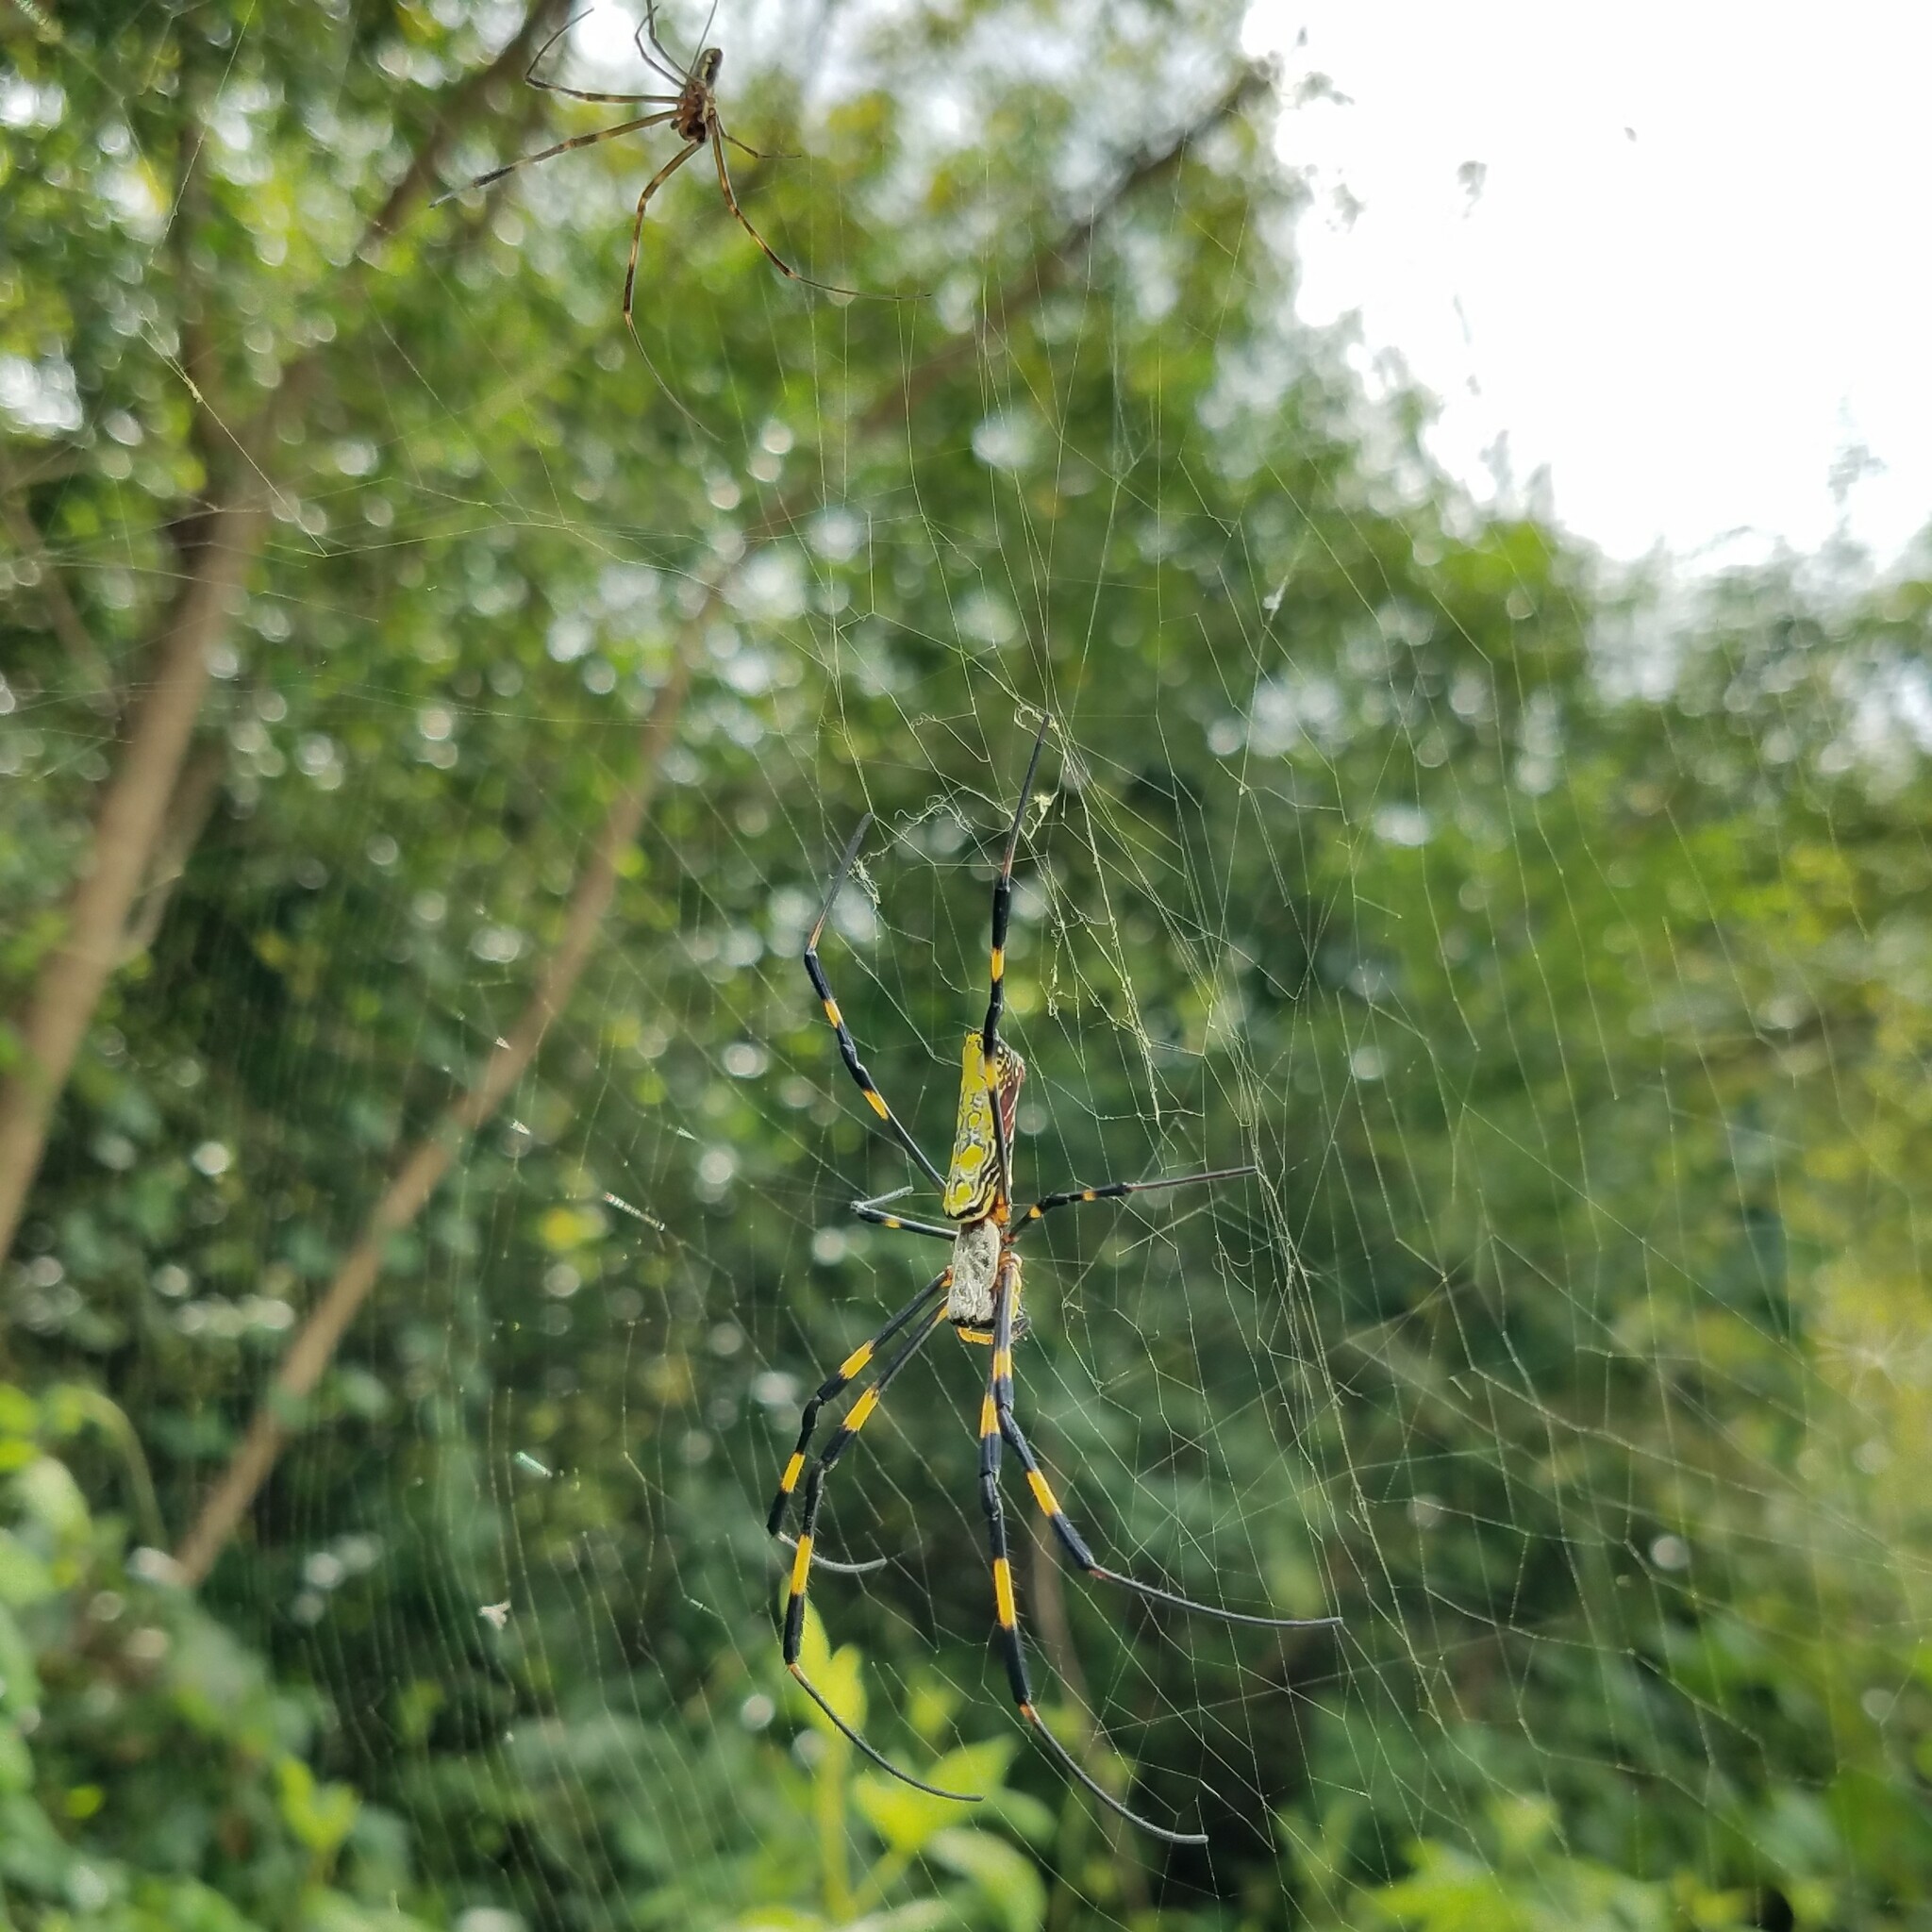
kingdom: Animalia
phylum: Arthropoda
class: Arachnida
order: Araneae
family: Araneidae
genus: Trichonephila
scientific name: Trichonephila clavata
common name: Jorō spider
